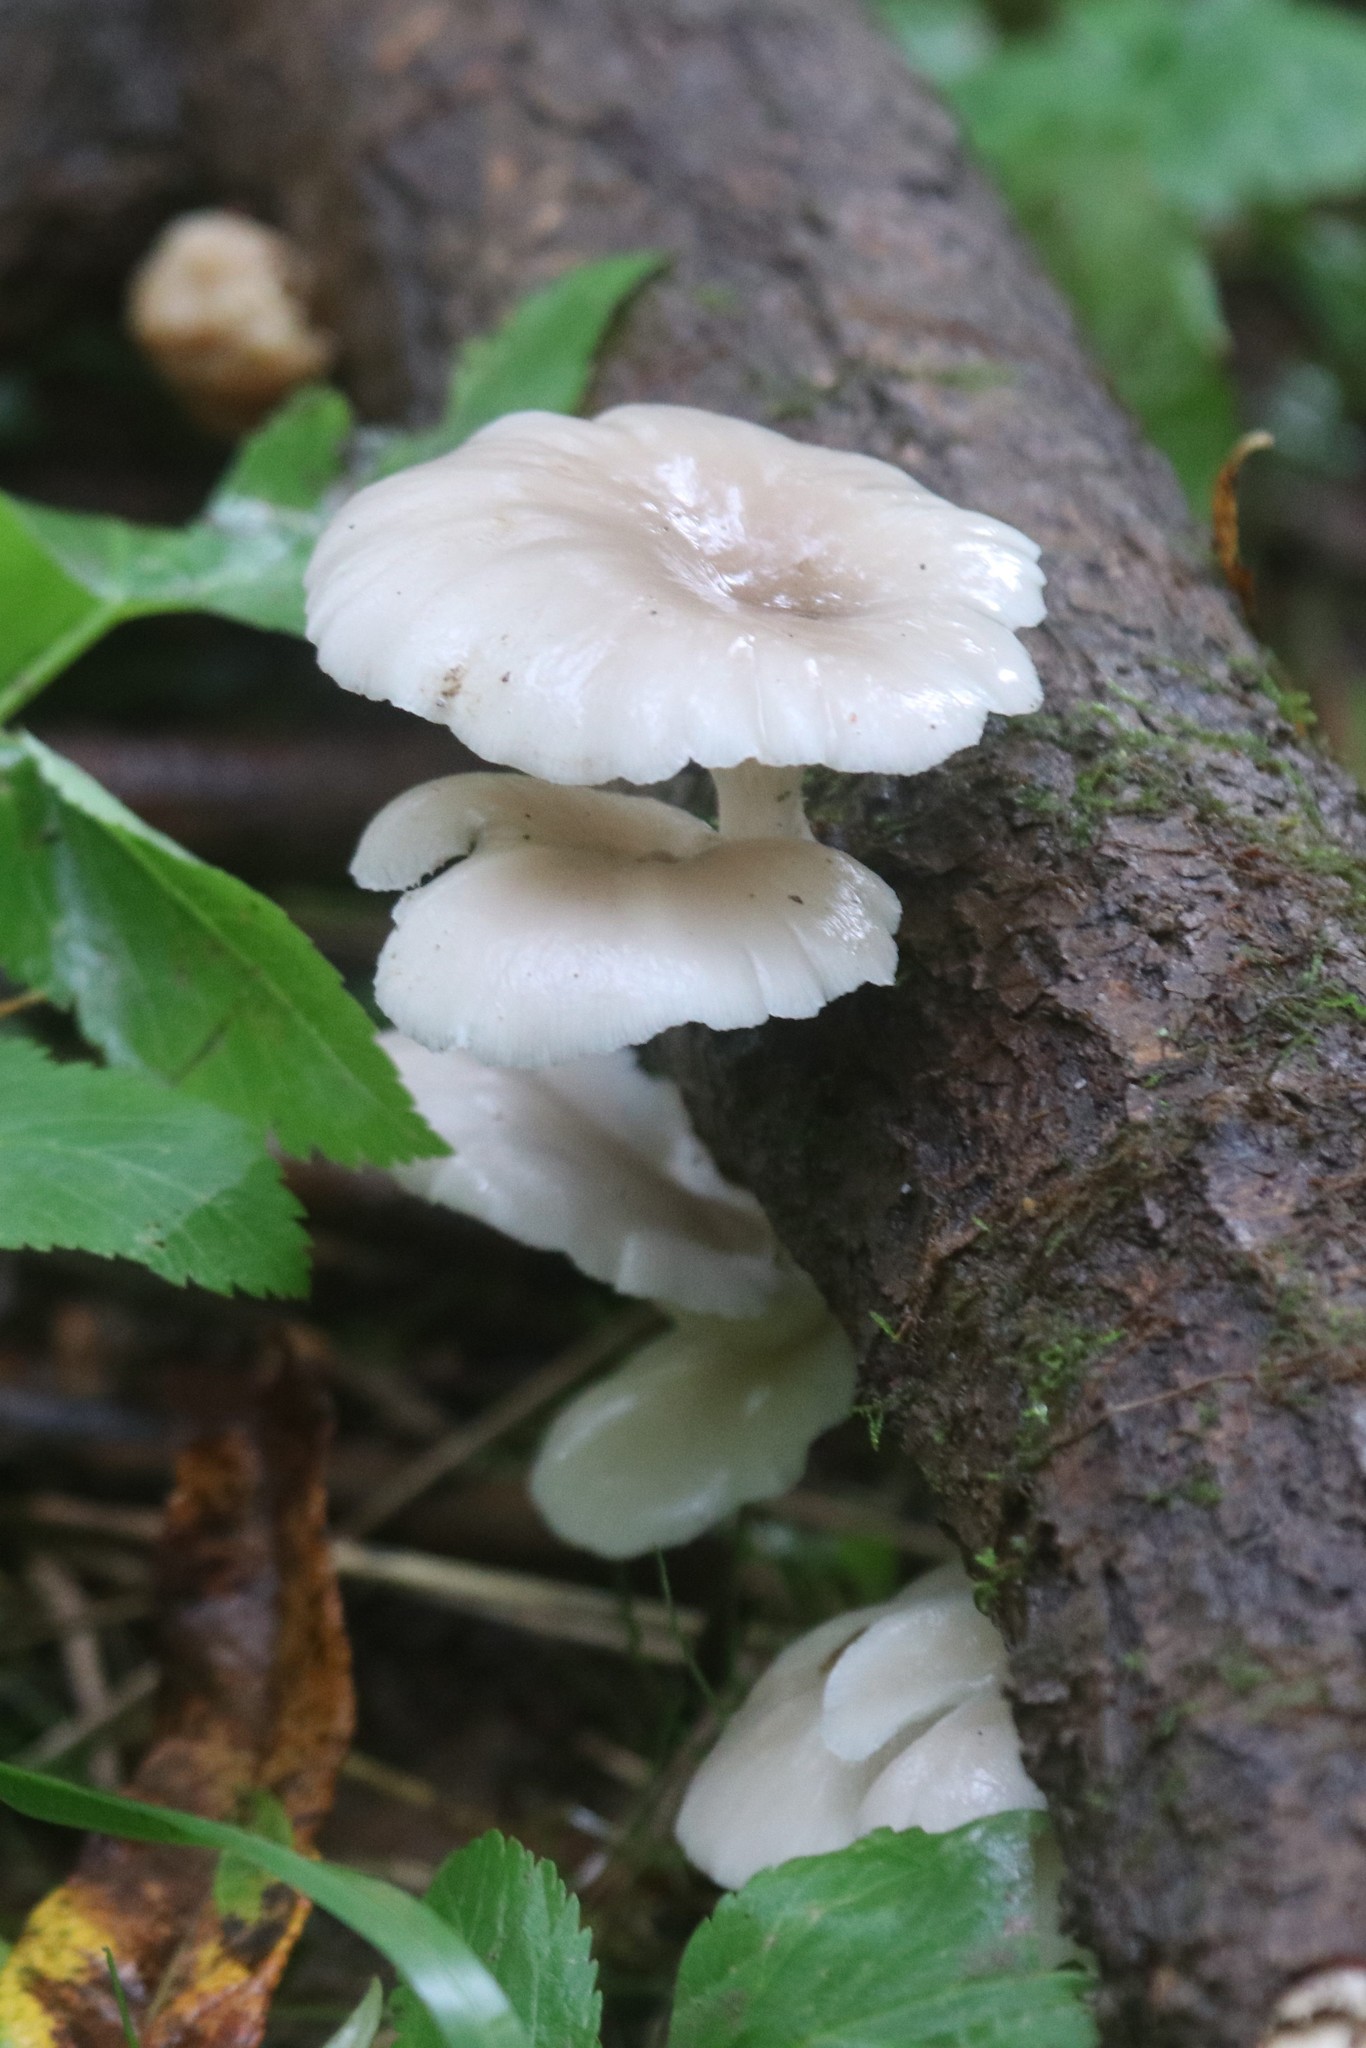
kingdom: Fungi
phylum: Basidiomycota
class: Agaricomycetes
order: Agaricales
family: Pleurotaceae
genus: Pleurotus
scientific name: Pleurotus pulmonarius
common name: Pale oyster
